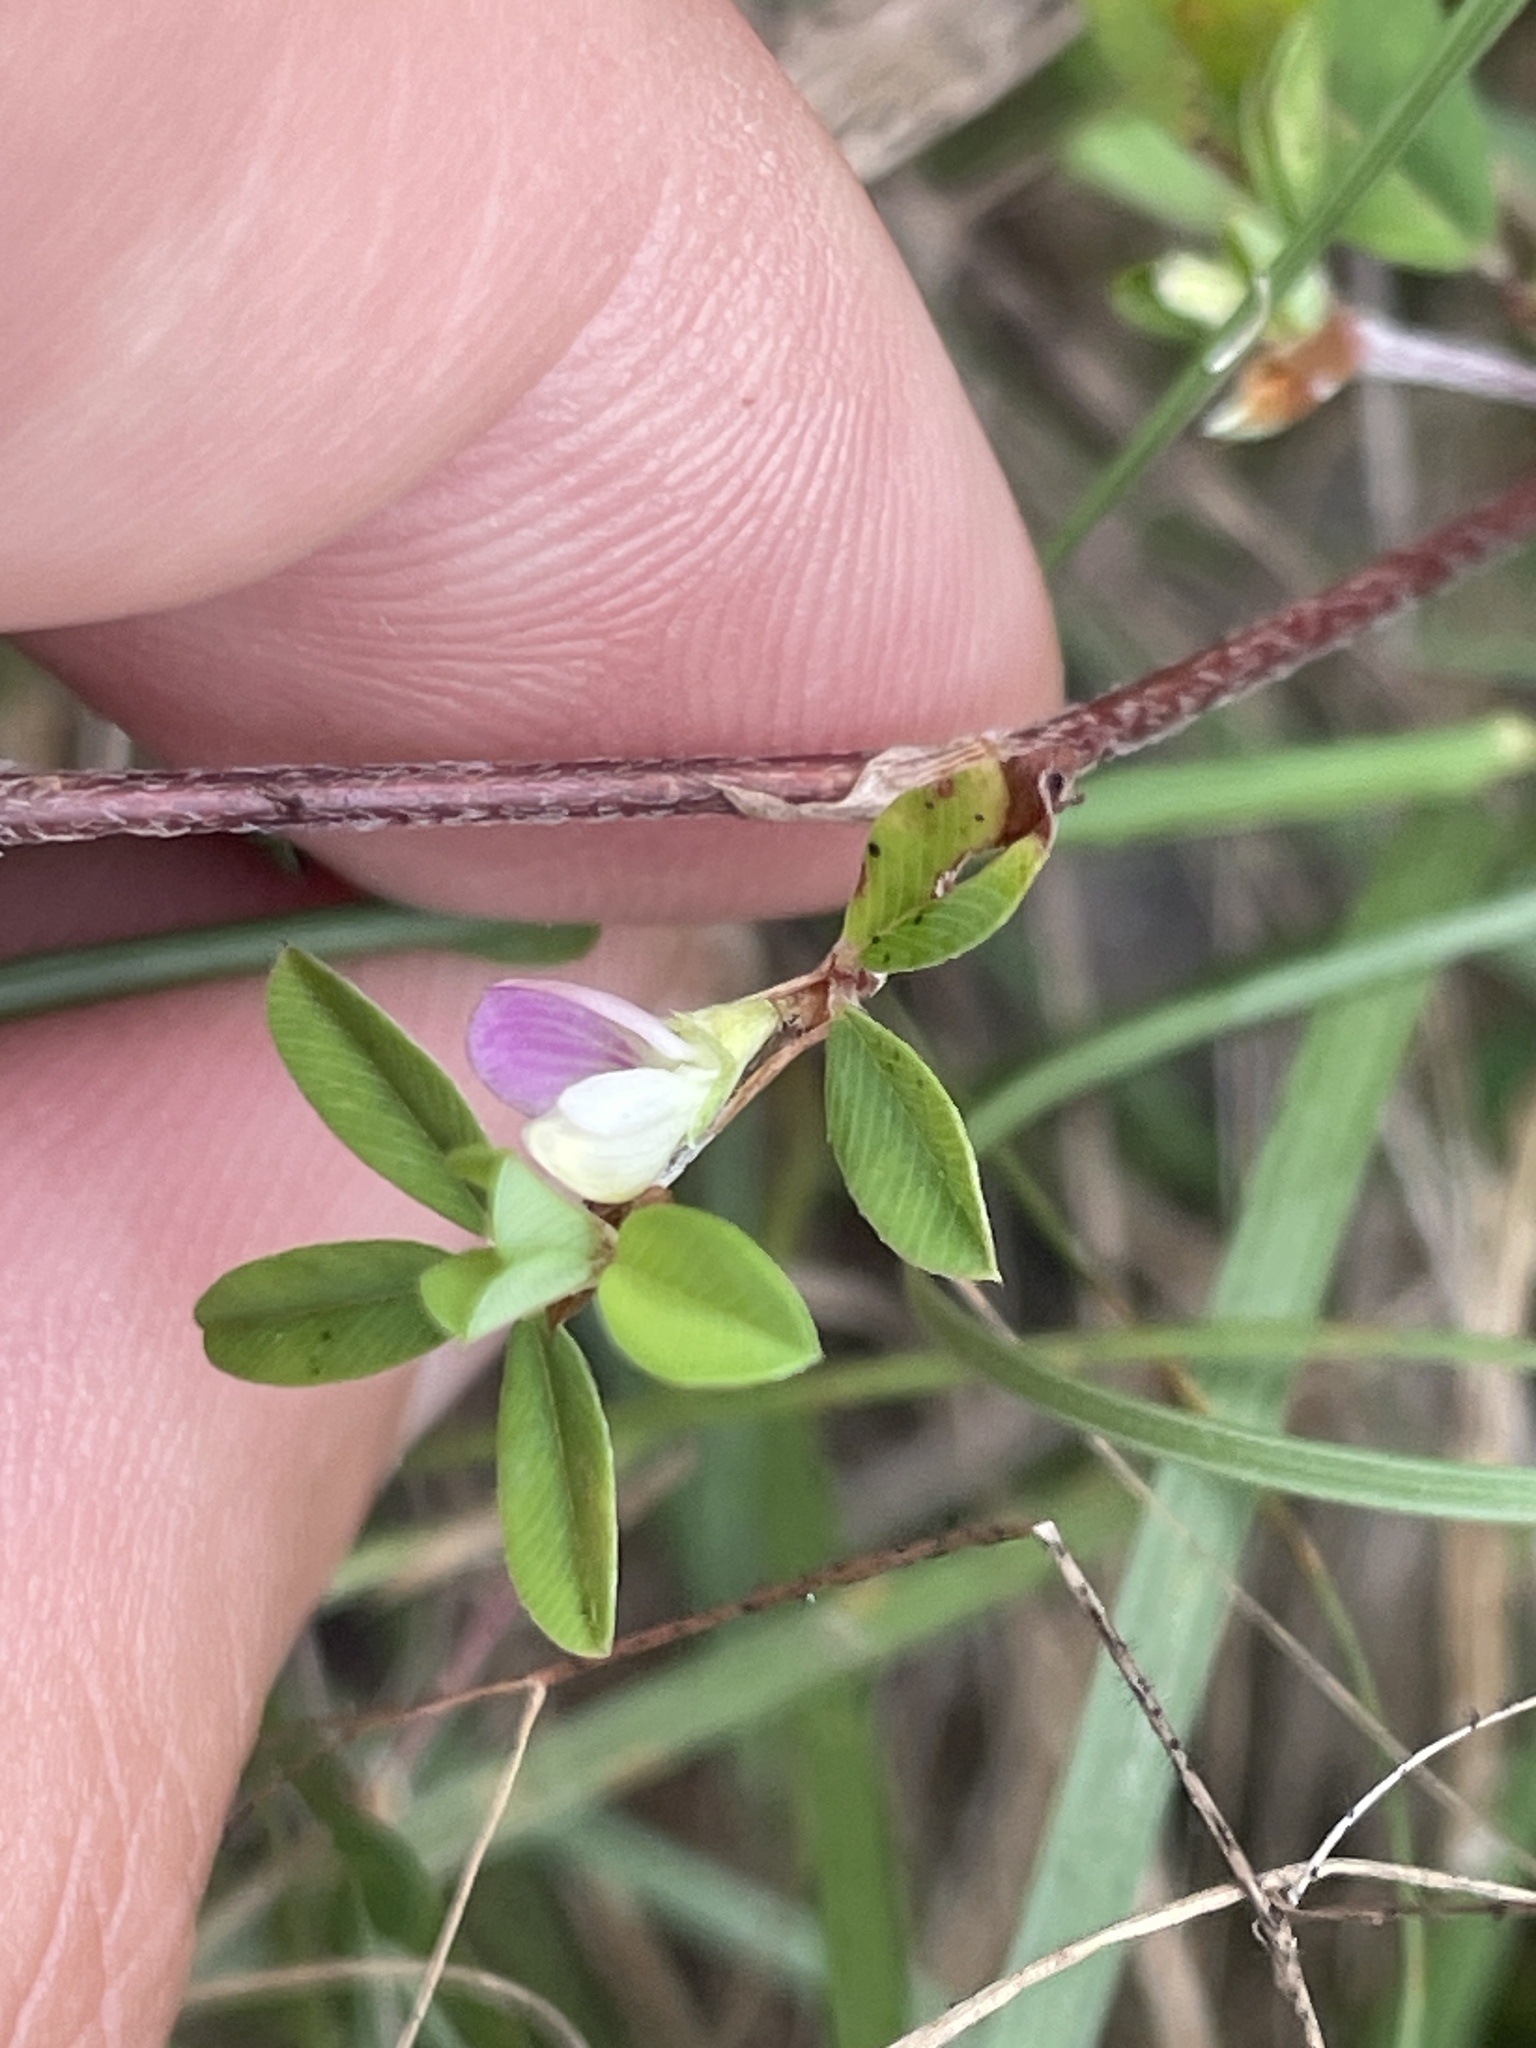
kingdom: Plantae
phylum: Tracheophyta
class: Magnoliopsida
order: Fabales
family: Fabaceae
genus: Kummerowia
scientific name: Kummerowia striata
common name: Japanese clover
